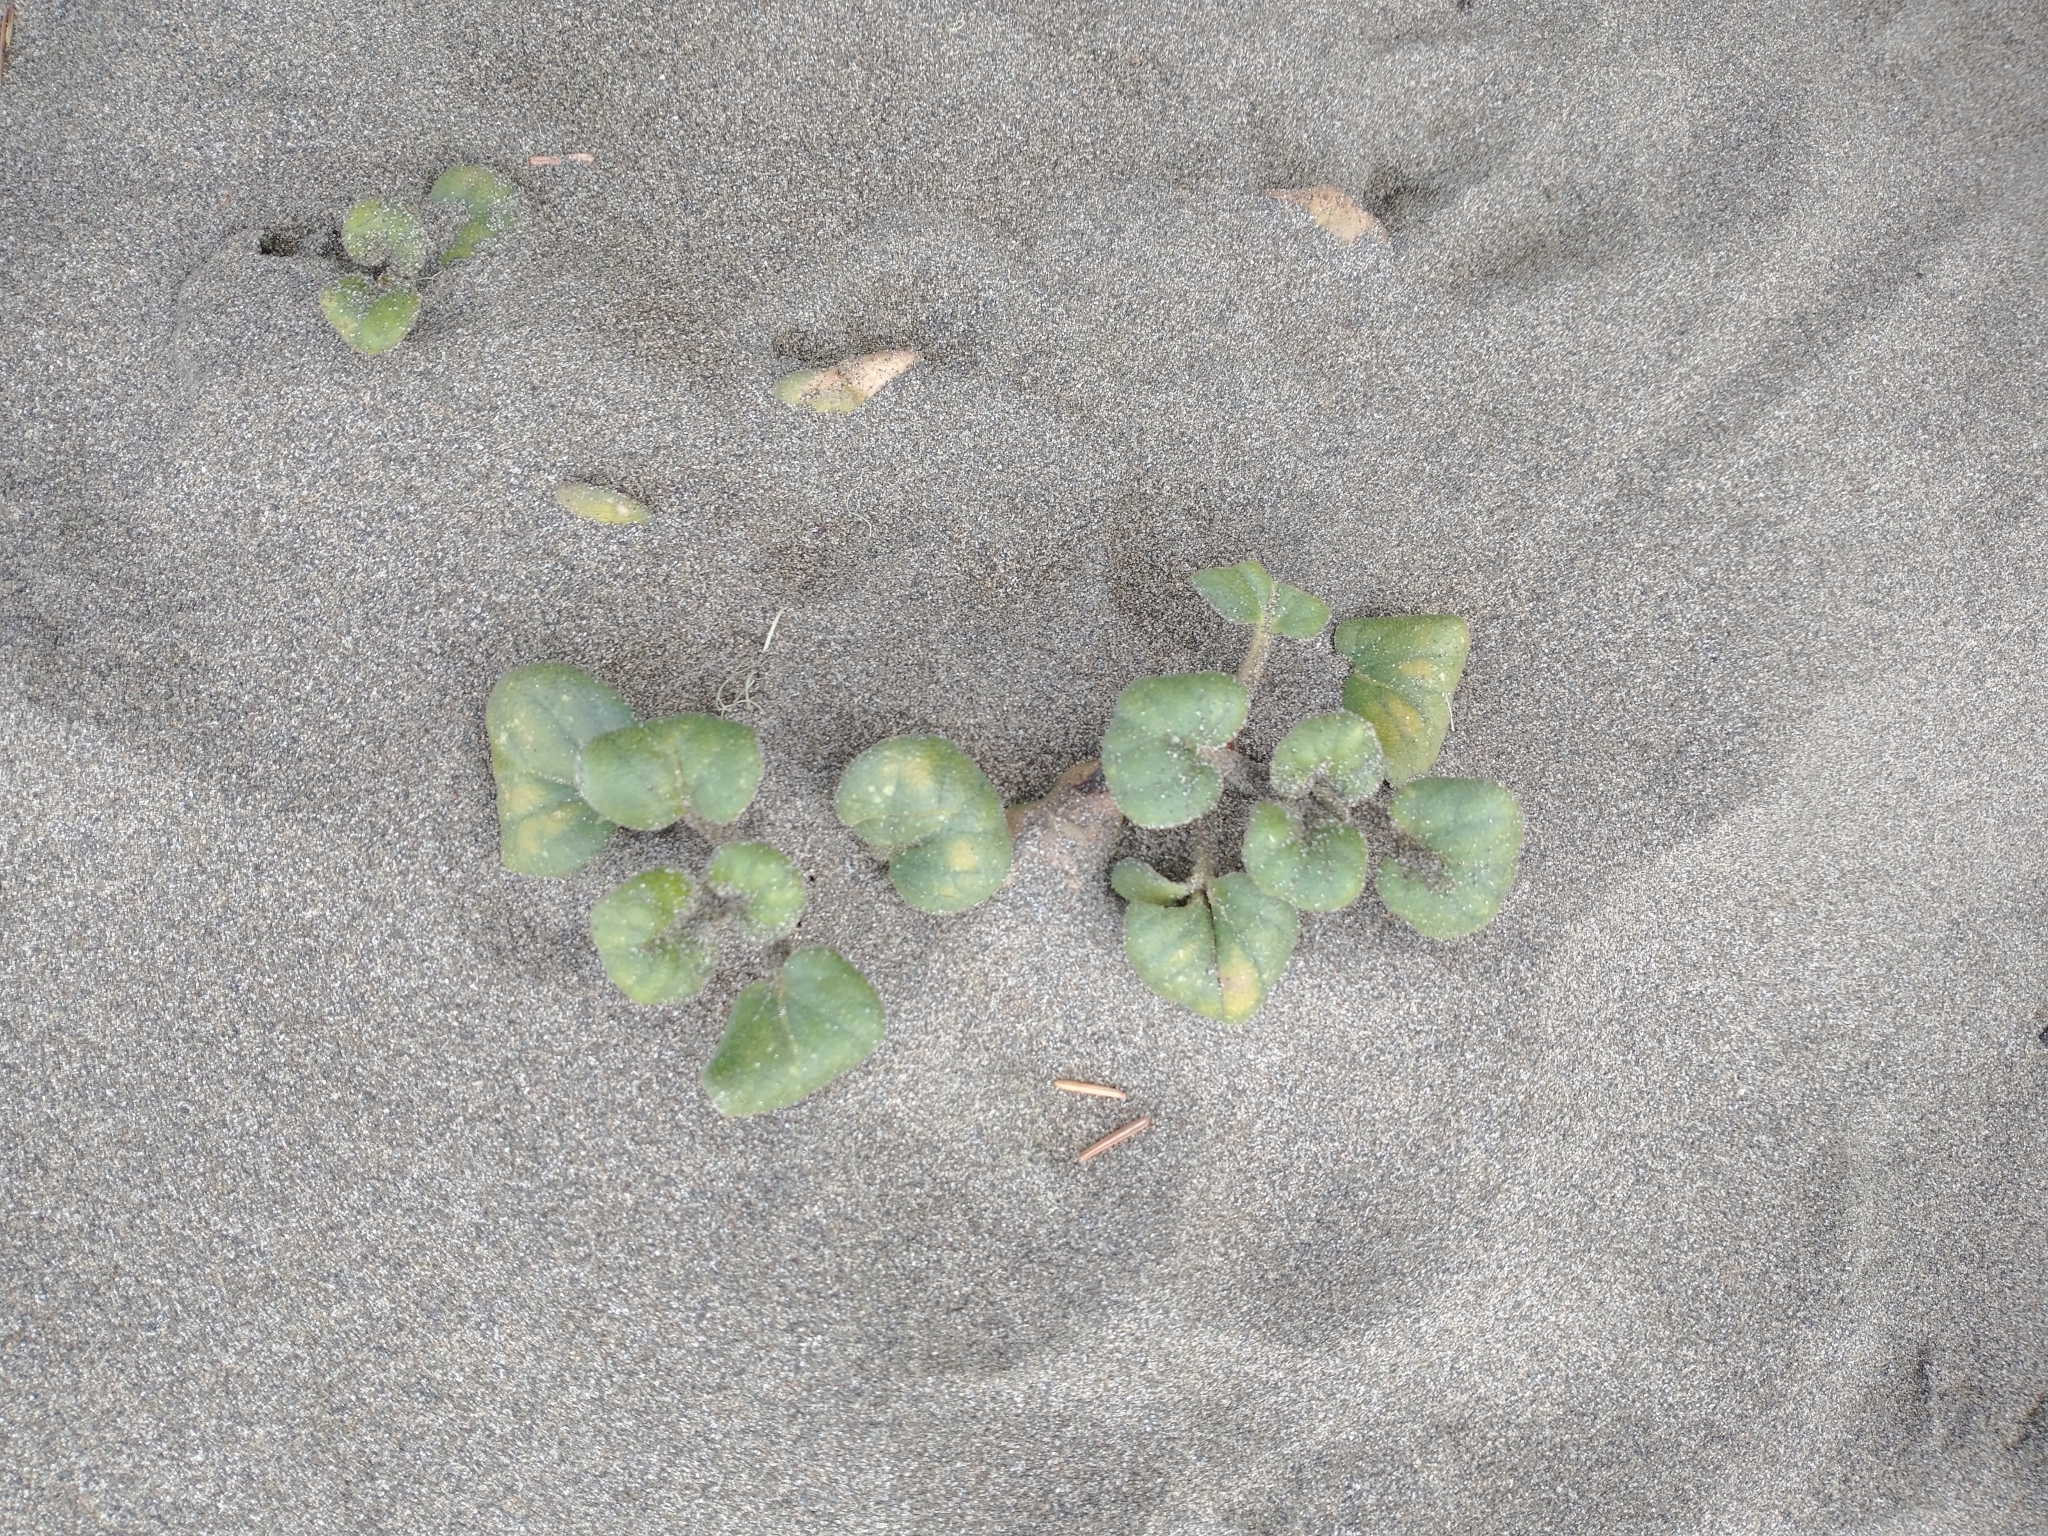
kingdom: Plantae
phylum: Tracheophyta
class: Magnoliopsida
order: Caryophyllales
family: Nyctaginaceae
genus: Abronia
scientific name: Abronia latifolia
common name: Yellow sand-verbena
